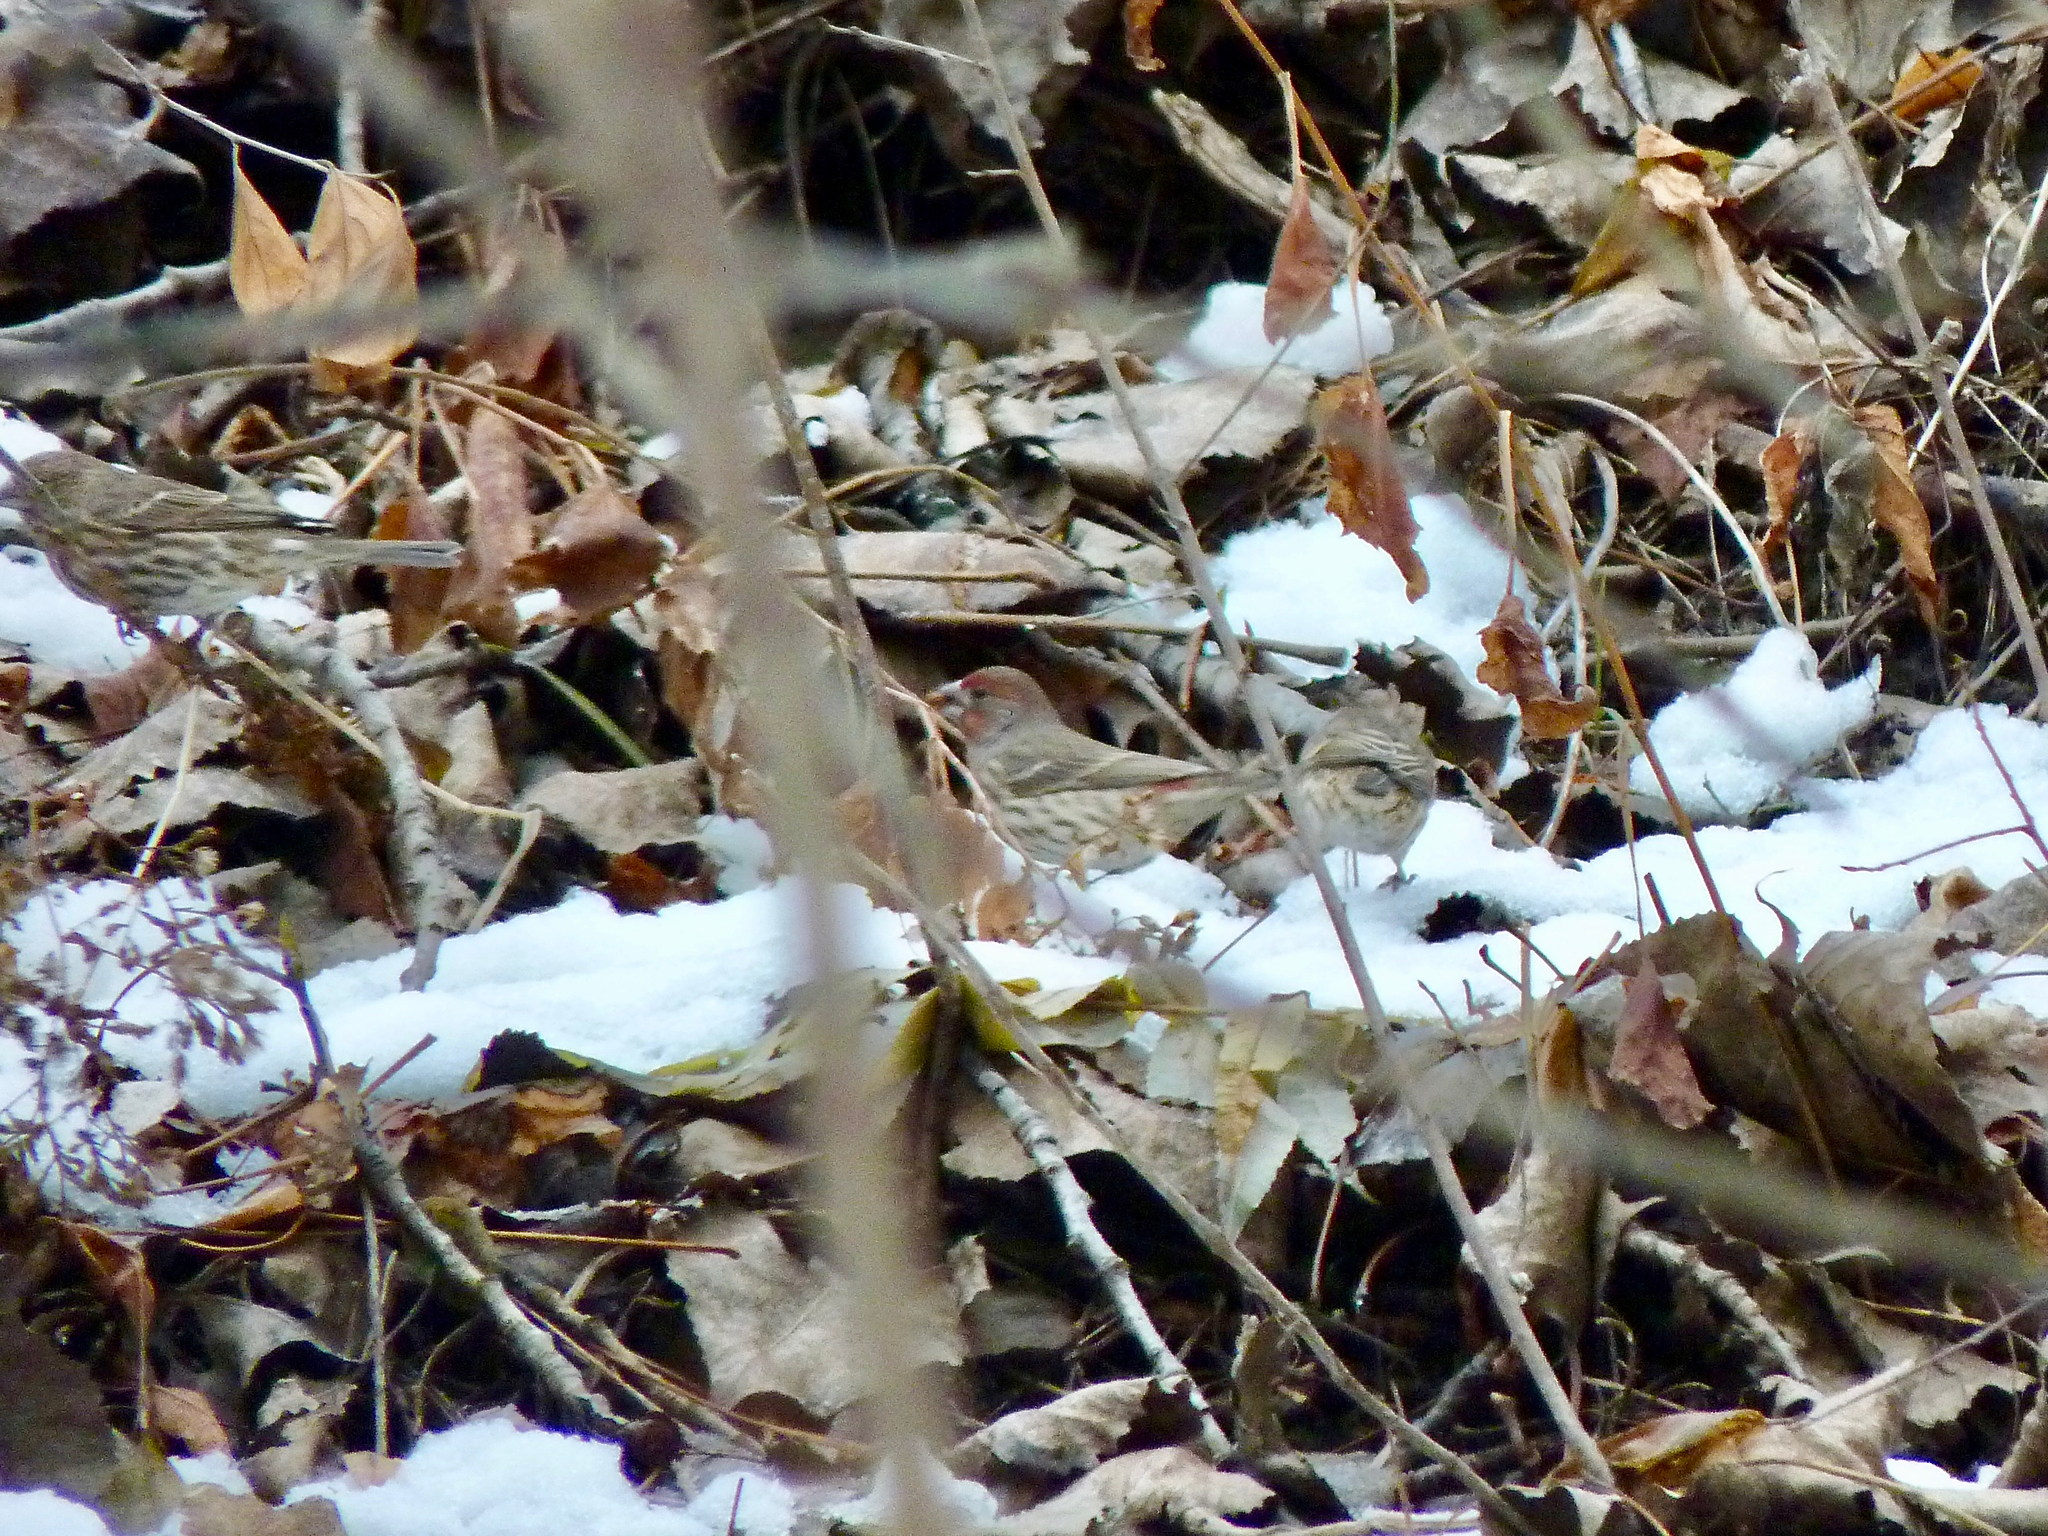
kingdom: Animalia
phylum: Chordata
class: Aves
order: Passeriformes
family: Fringillidae
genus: Haemorhous
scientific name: Haemorhous mexicanus
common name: House finch
